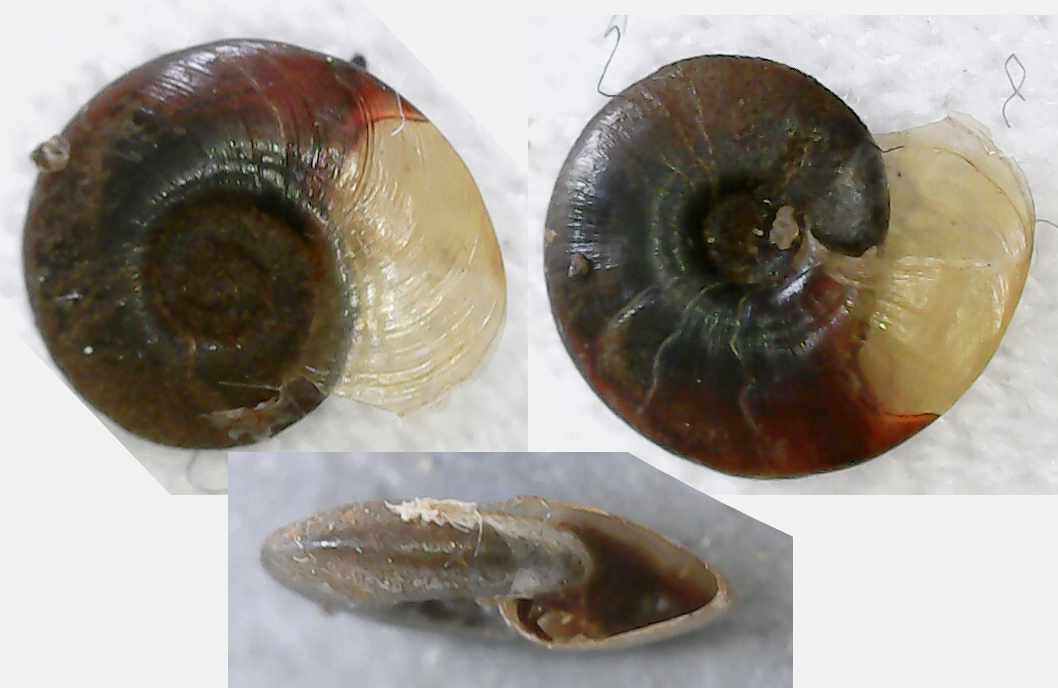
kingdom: Animalia
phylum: Mollusca
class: Gastropoda
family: Planorbidae
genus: Hippeutis
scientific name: Hippeutis complanatus
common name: Flat ramshorn
